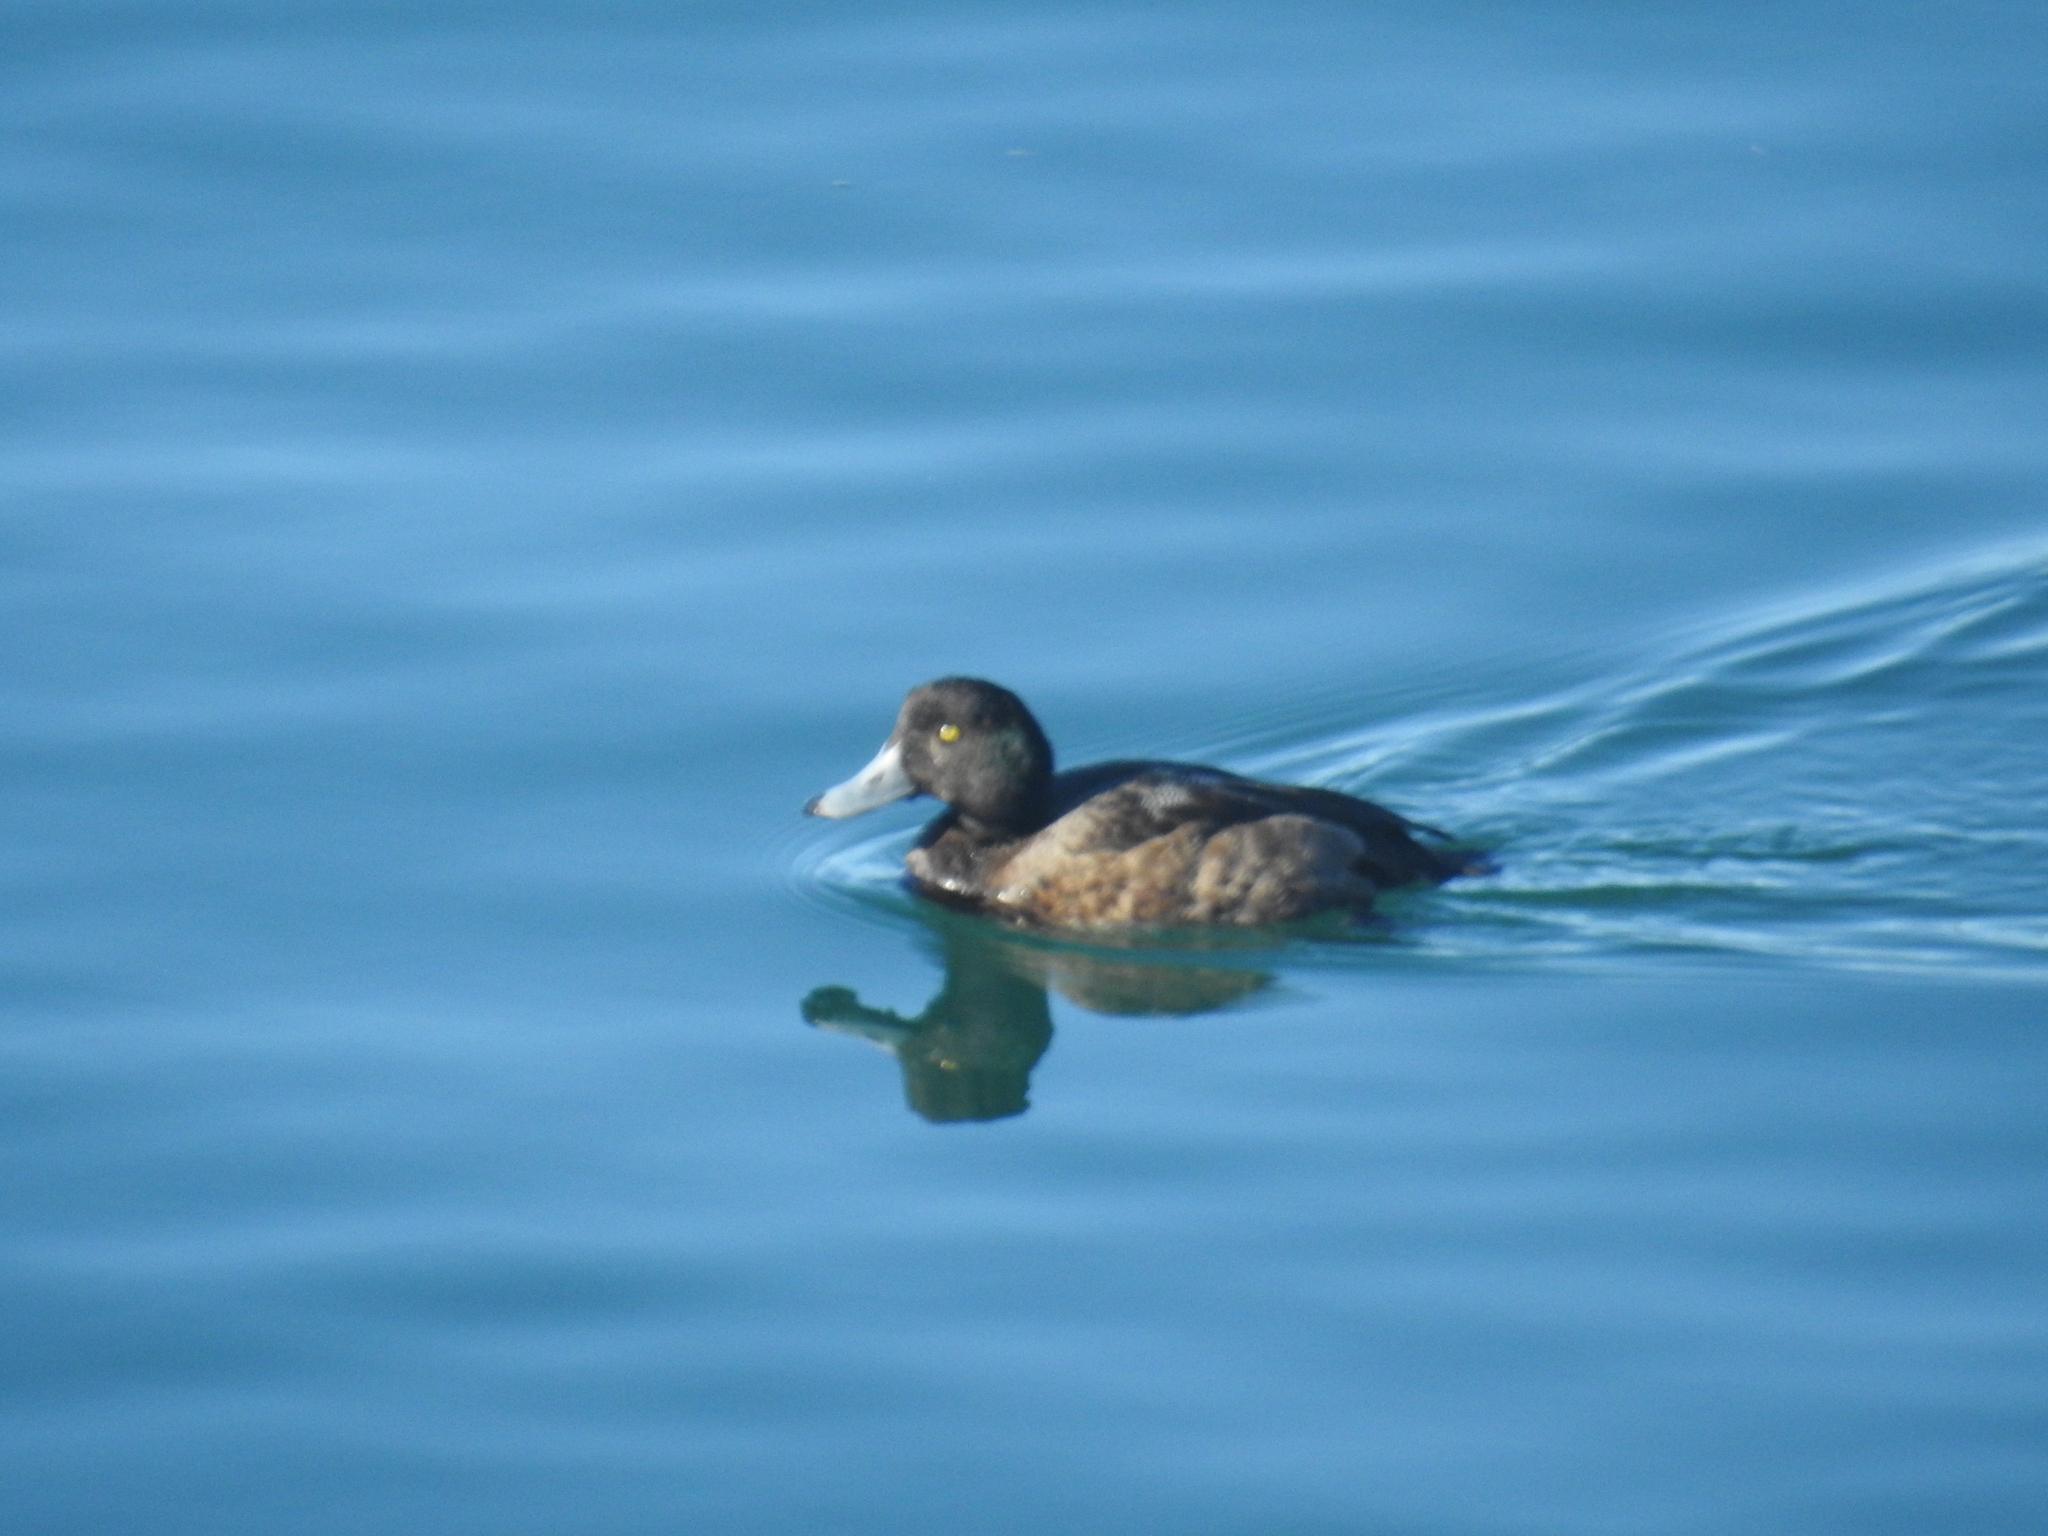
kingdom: Animalia
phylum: Chordata
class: Aves
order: Anseriformes
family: Anatidae
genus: Aythya
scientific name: Aythya marila
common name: Greater scaup
